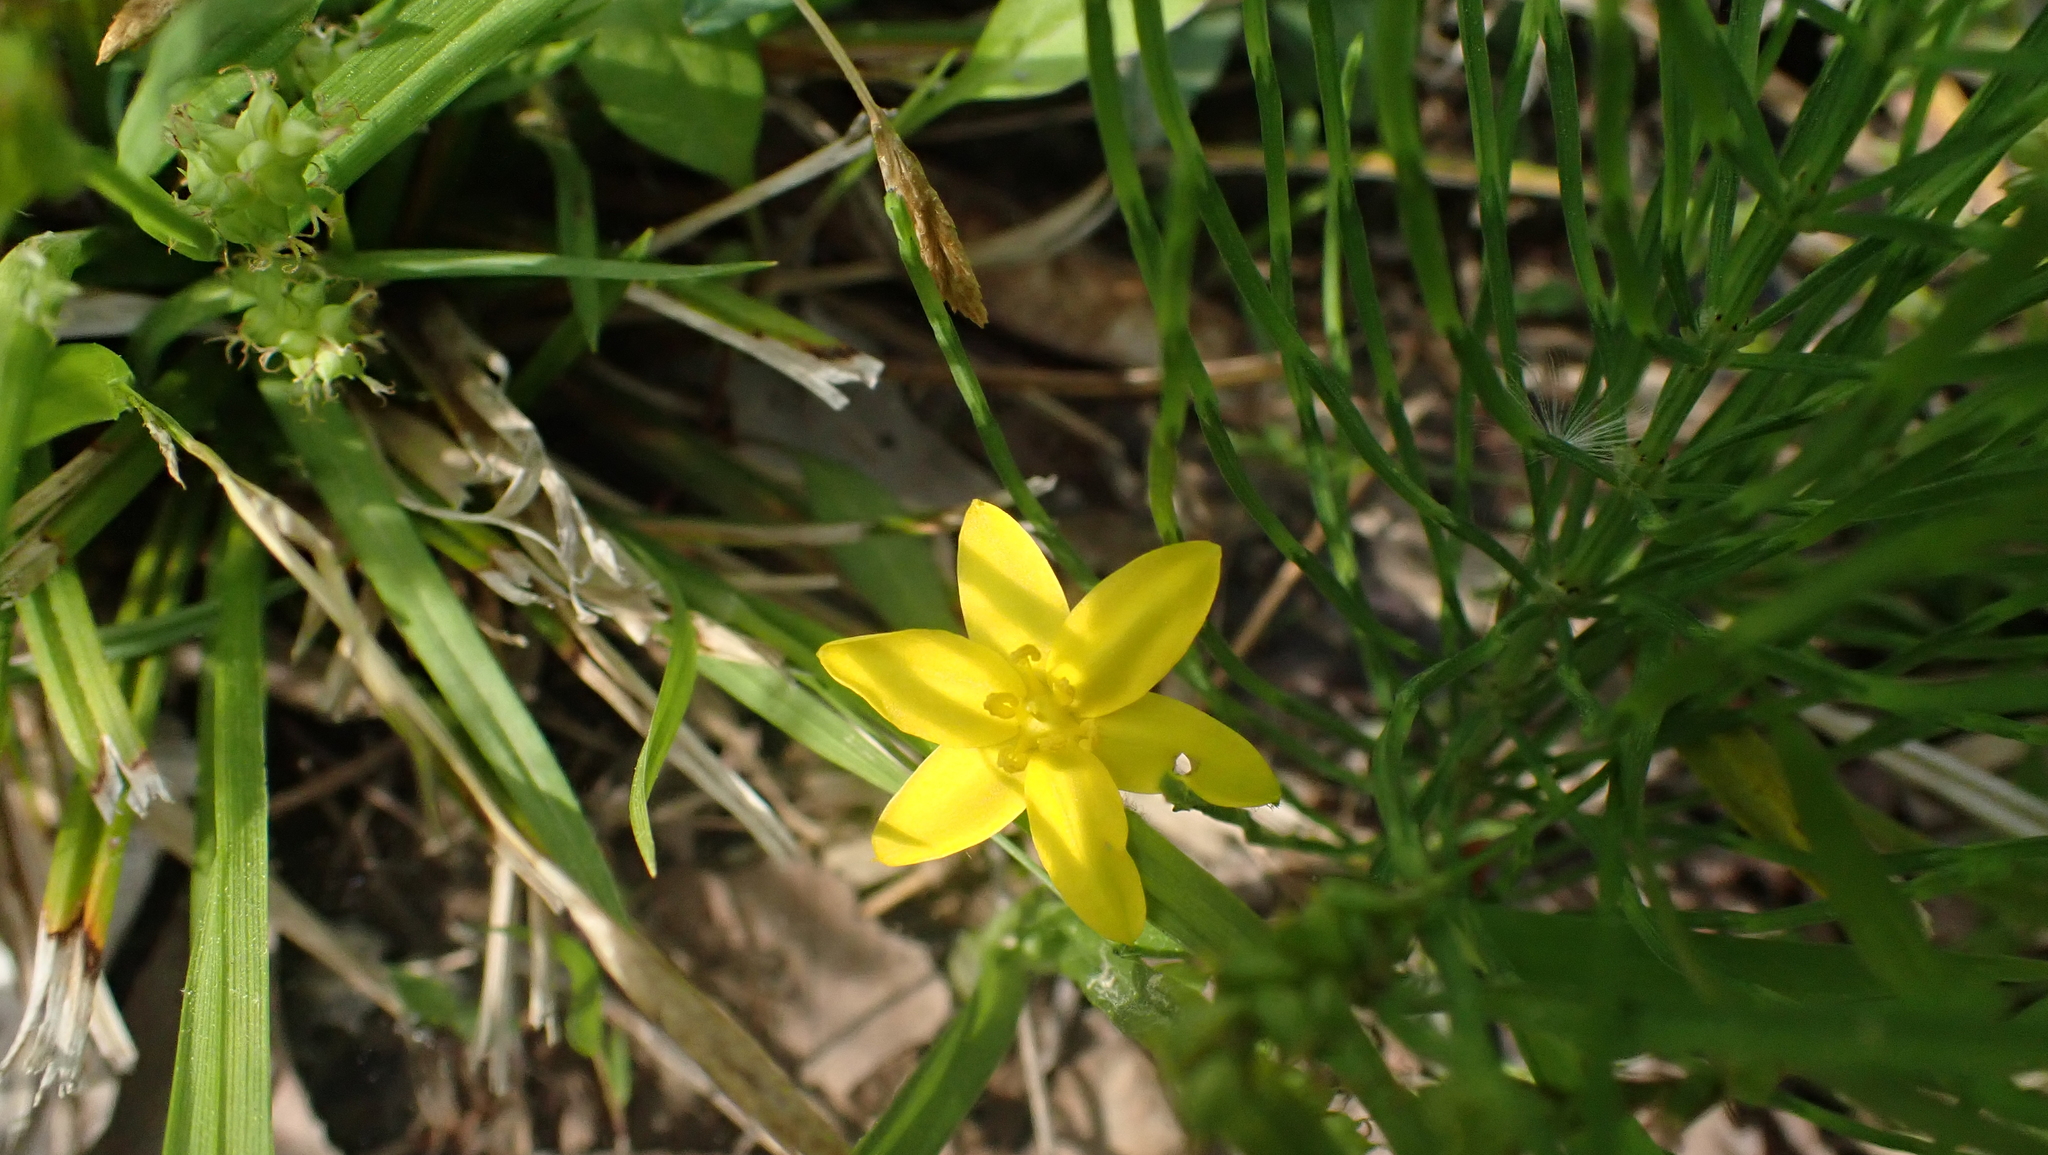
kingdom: Plantae
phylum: Tracheophyta
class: Liliopsida
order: Asparagales
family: Hypoxidaceae
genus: Hypoxis
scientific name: Hypoxis hirsuta
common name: Common goldstar
